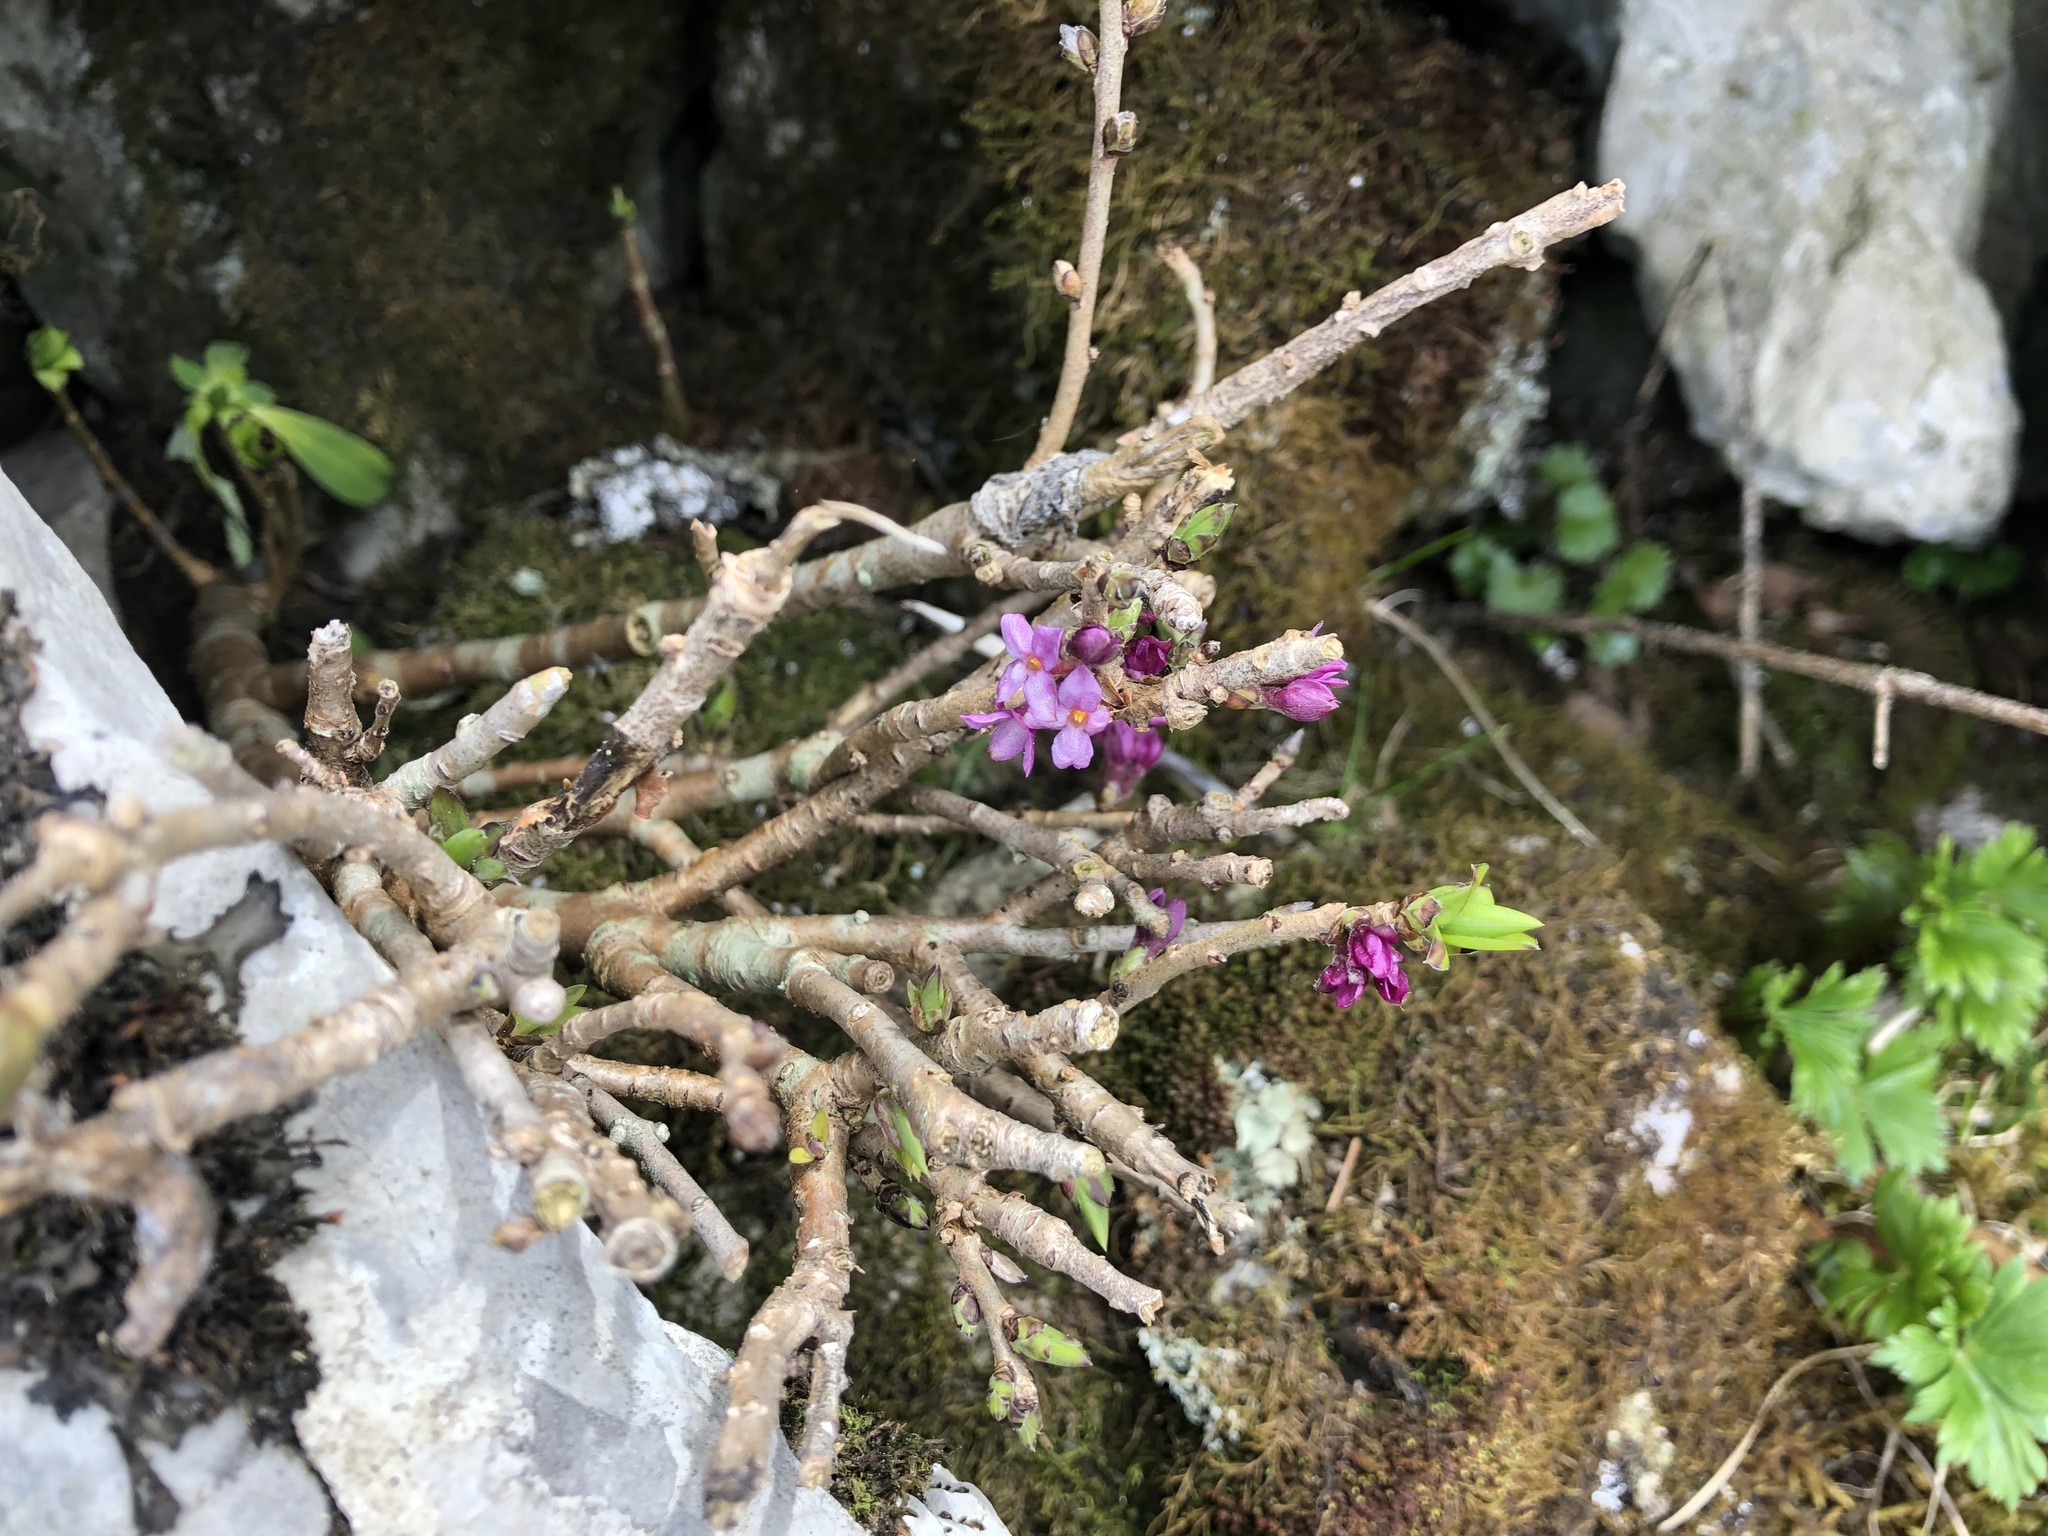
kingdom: Plantae
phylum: Tracheophyta
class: Magnoliopsida
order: Malvales
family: Thymelaeaceae
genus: Daphne
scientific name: Daphne mezereum
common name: Mezereon
